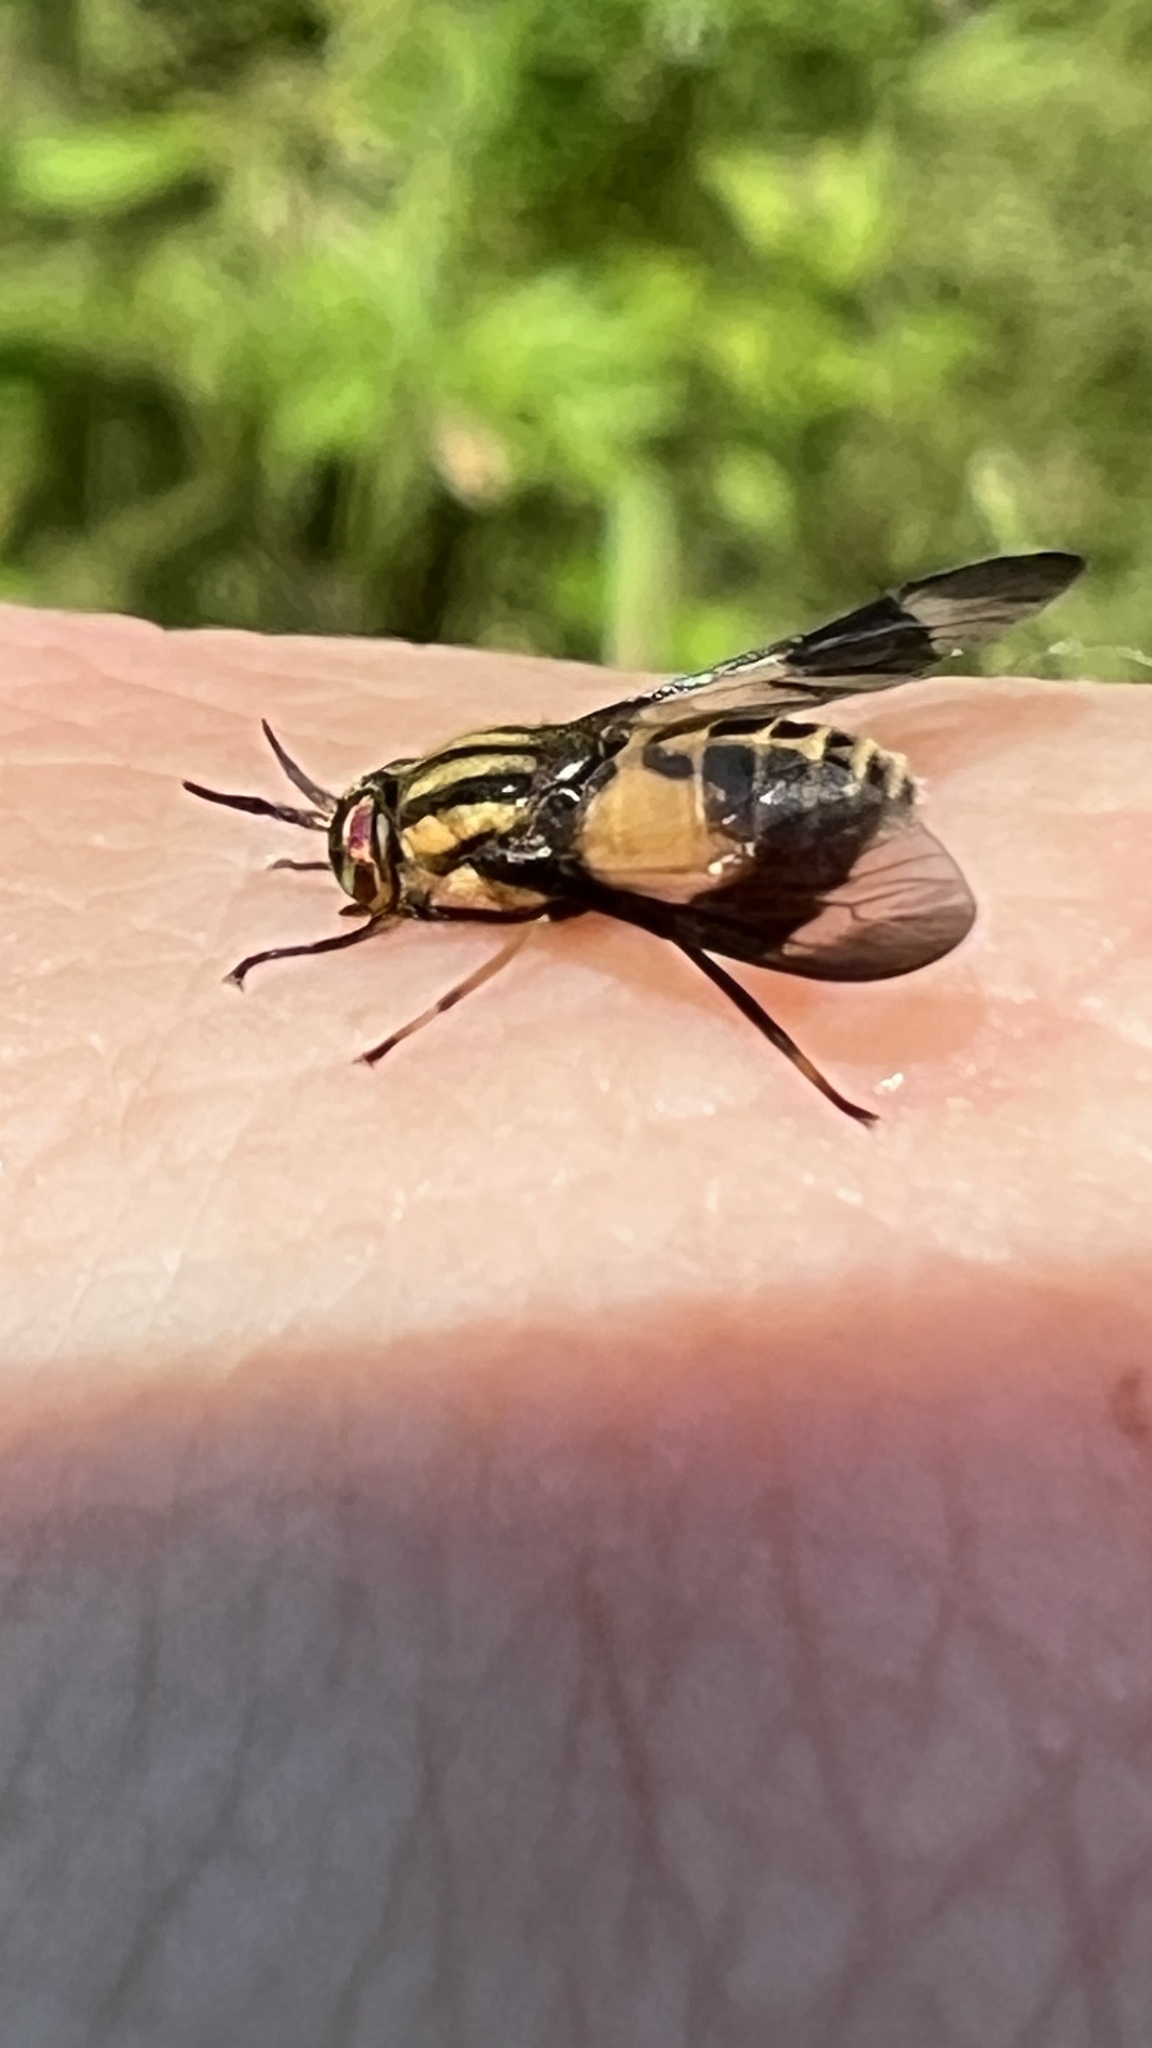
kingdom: Animalia
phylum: Arthropoda
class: Insecta
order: Diptera
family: Tabanidae
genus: Chrysops
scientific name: Chrysops geminatus
